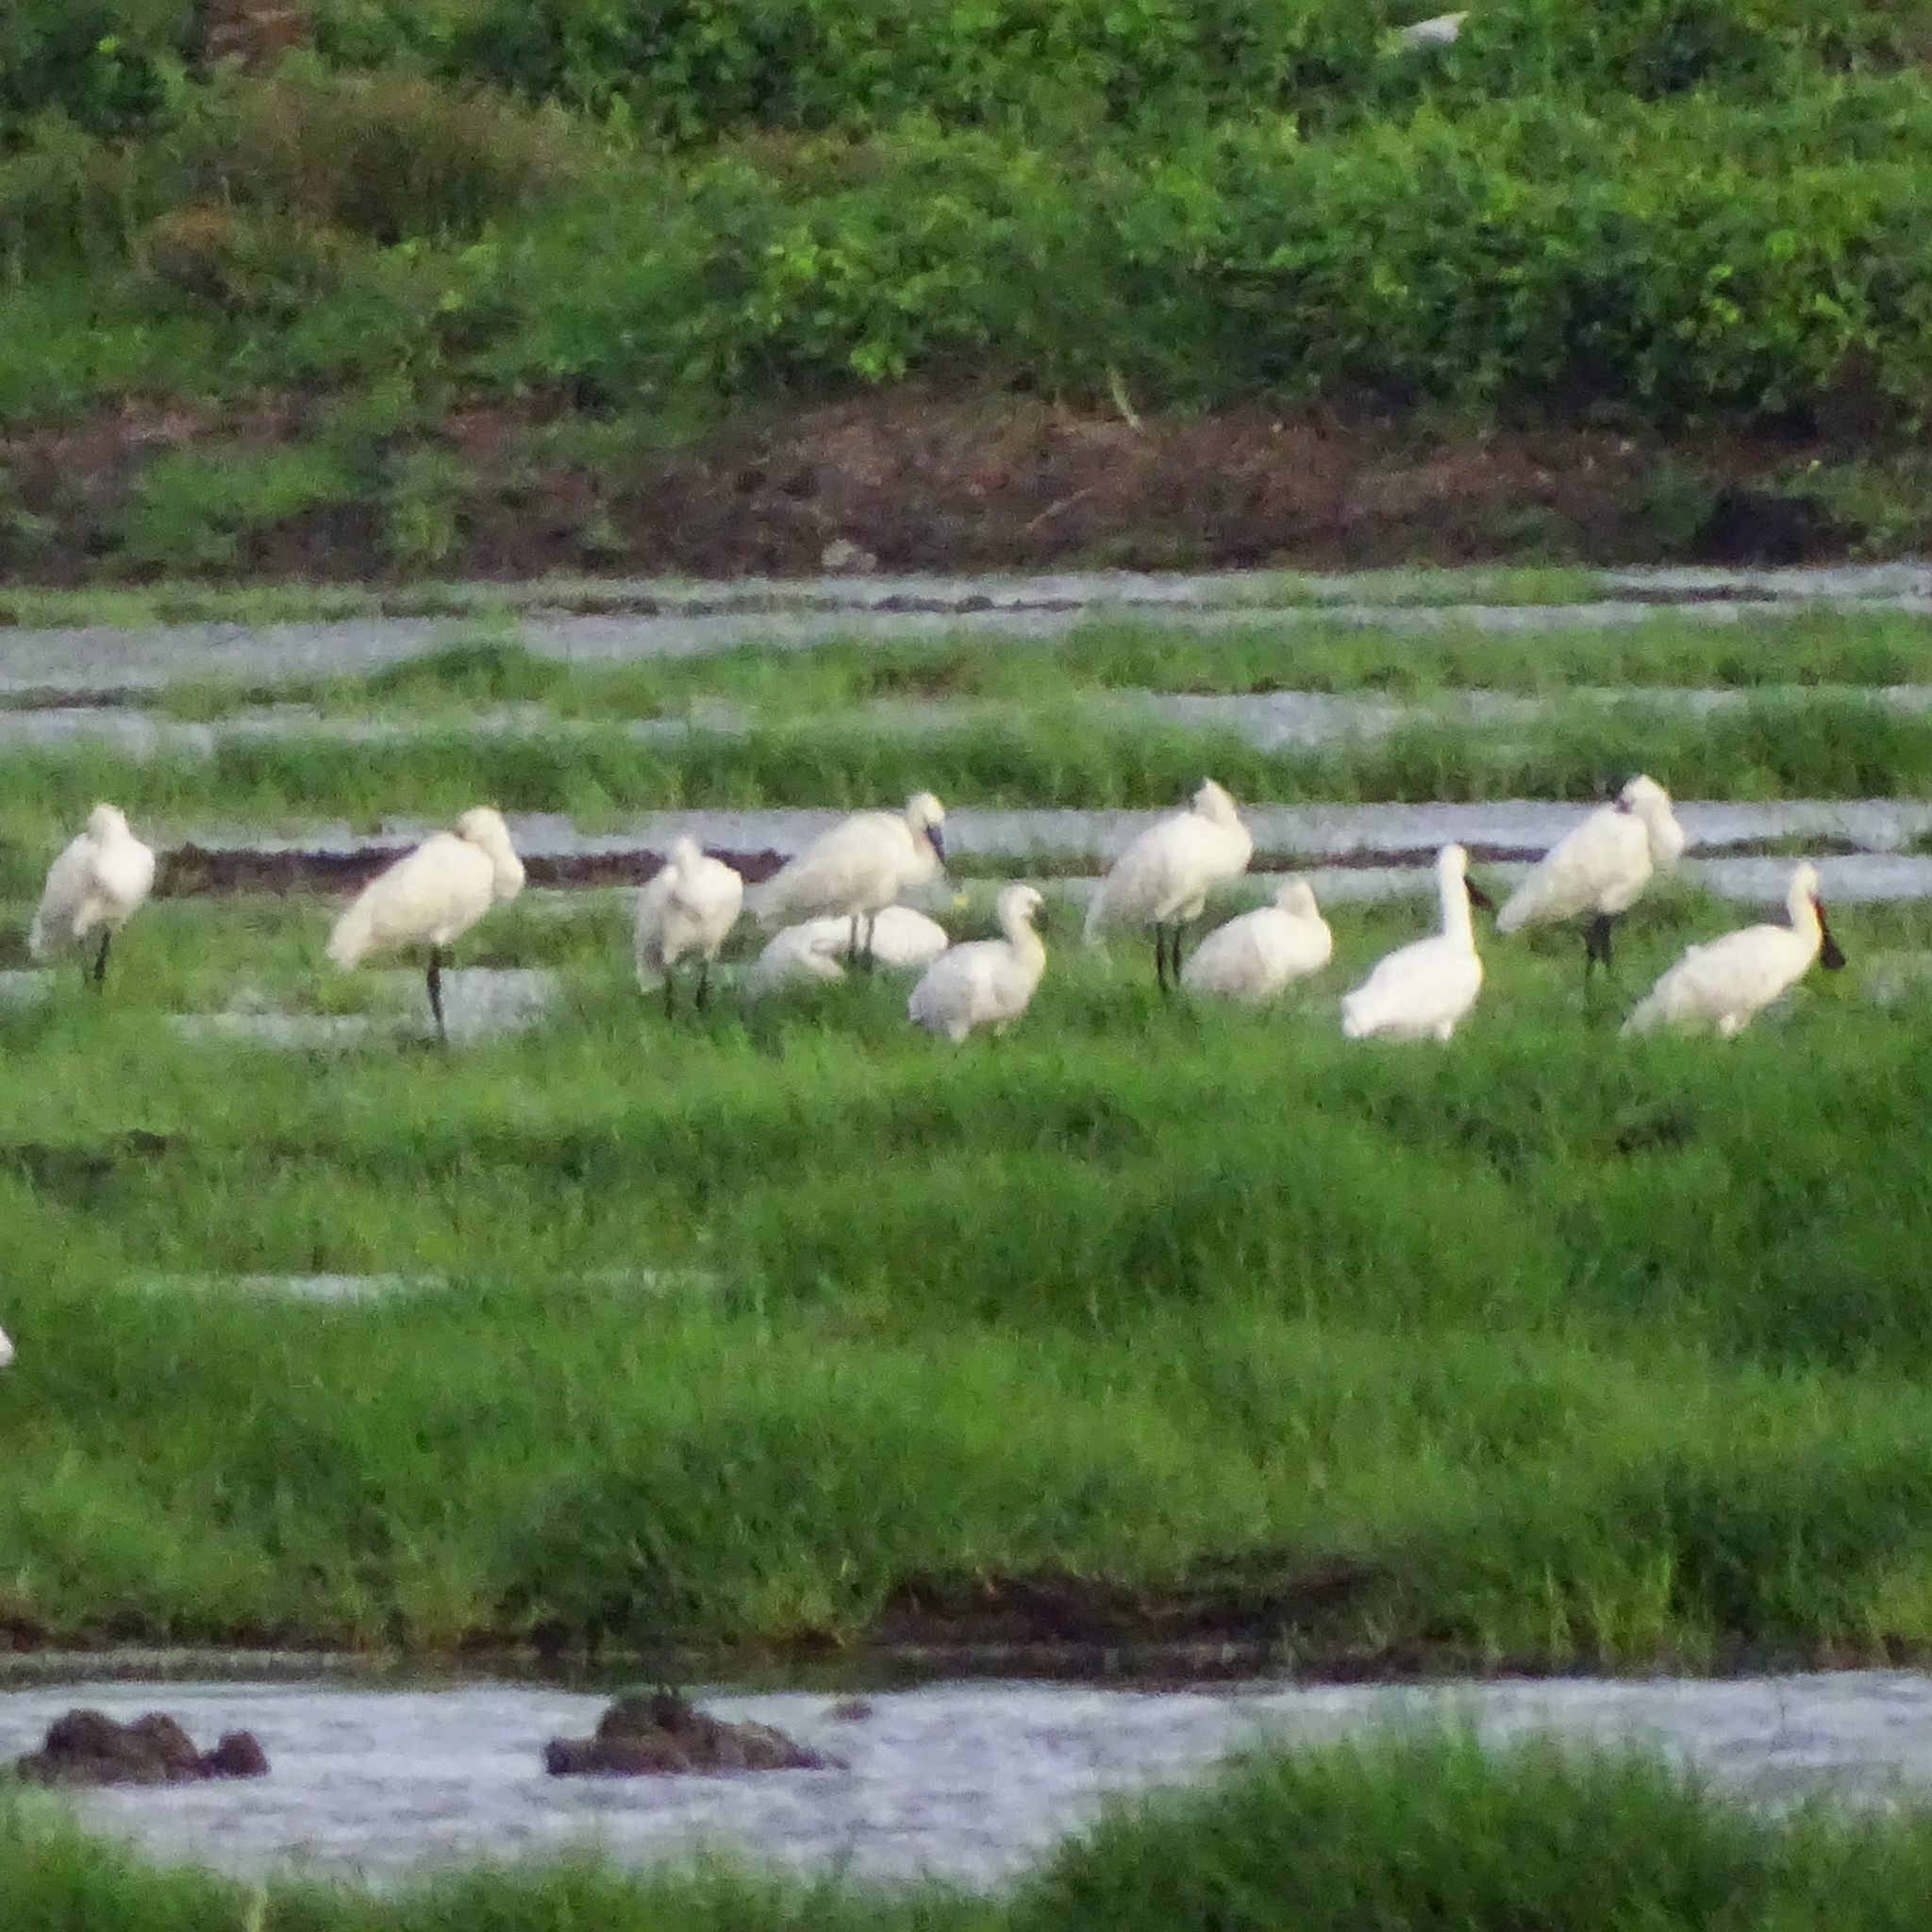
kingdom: Animalia
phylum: Chordata
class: Aves
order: Pelecaniformes
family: Threskiornithidae
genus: Platalea
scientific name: Platalea leucorodia
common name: Eurasian spoonbill
